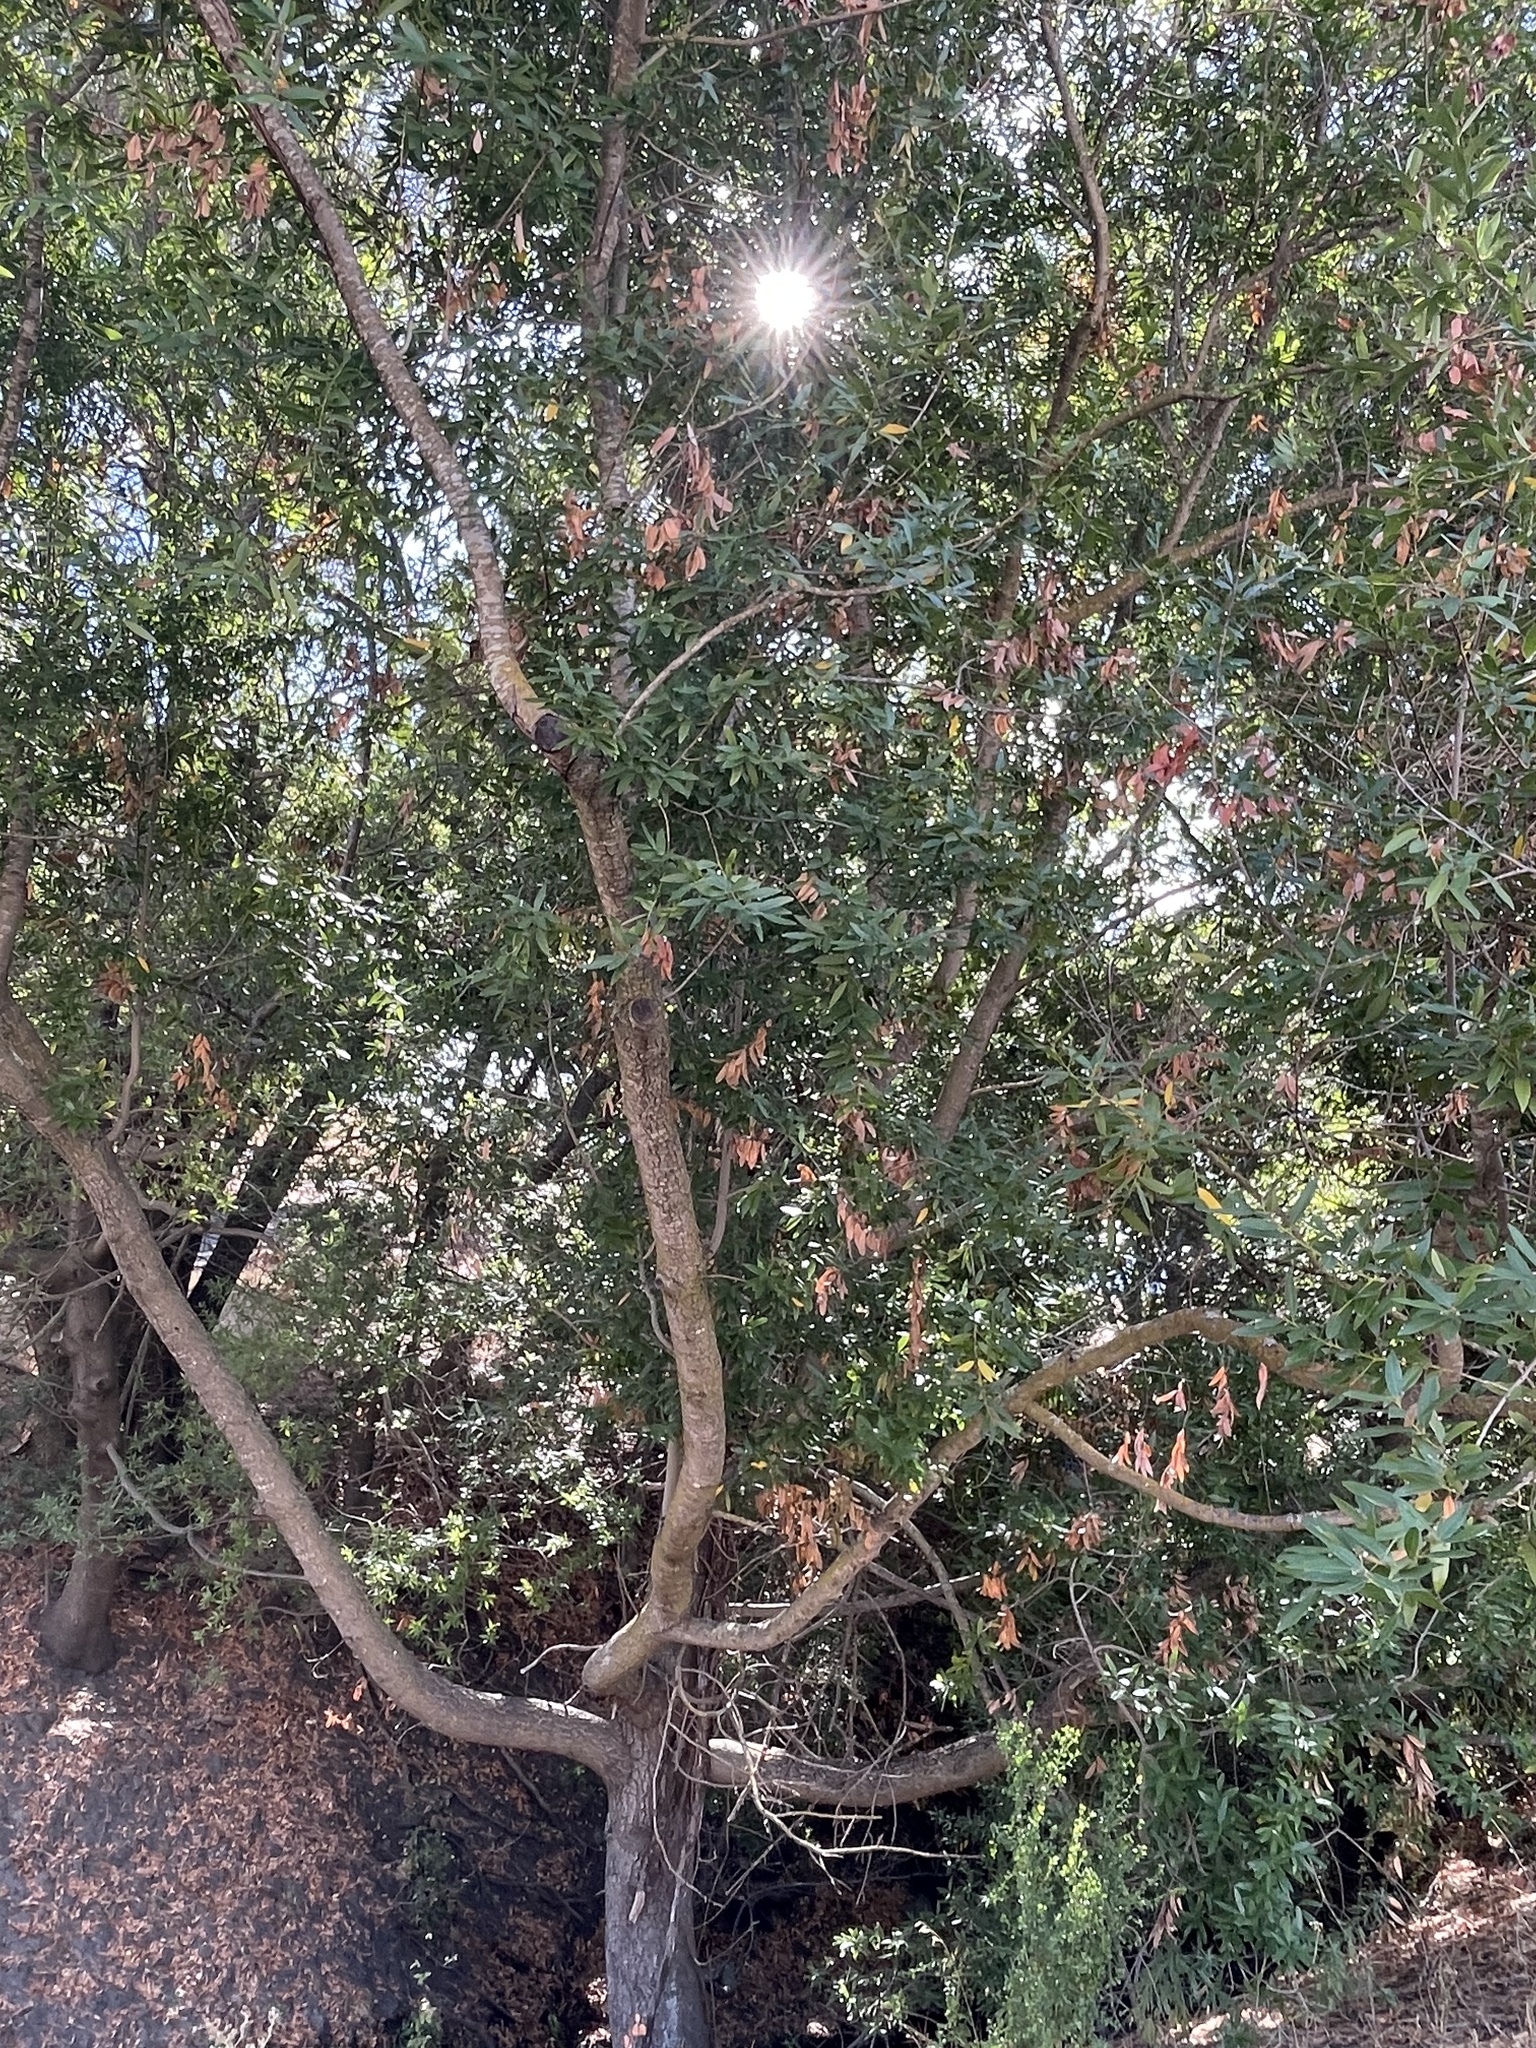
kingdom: Plantae
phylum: Tracheophyta
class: Magnoliopsida
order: Laurales
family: Lauraceae
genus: Umbellularia
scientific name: Umbellularia californica
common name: California bay
